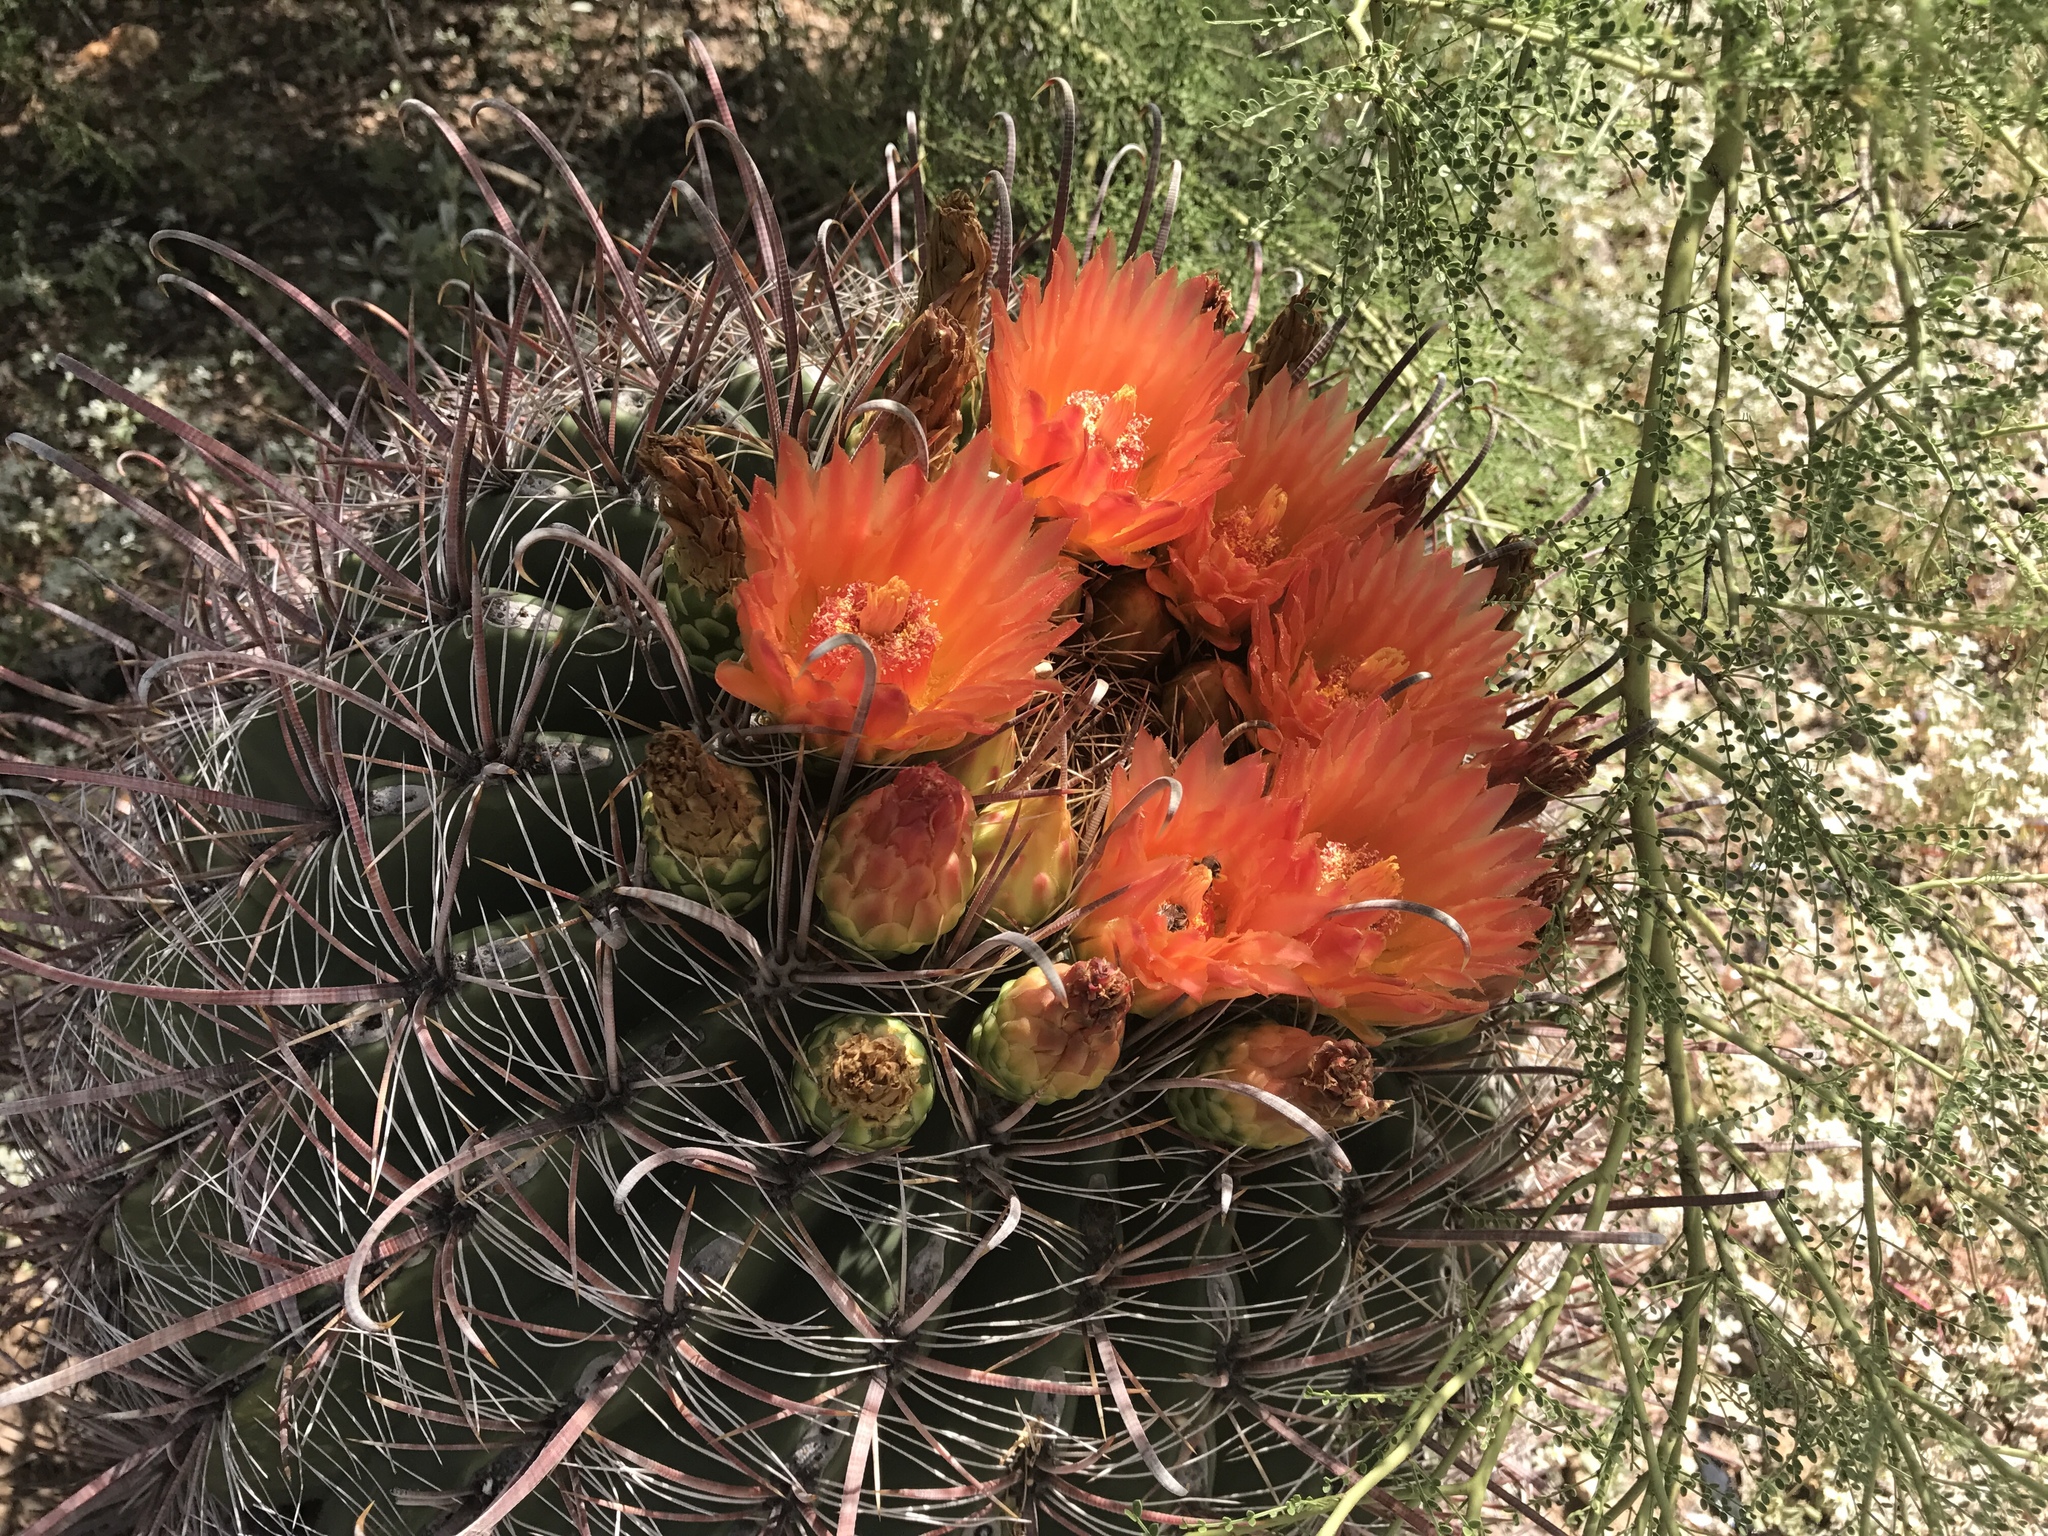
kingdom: Plantae
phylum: Tracheophyta
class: Magnoliopsida
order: Caryophyllales
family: Cactaceae
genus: Ferocactus
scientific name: Ferocactus wislizeni
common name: Candy barrel cactus
